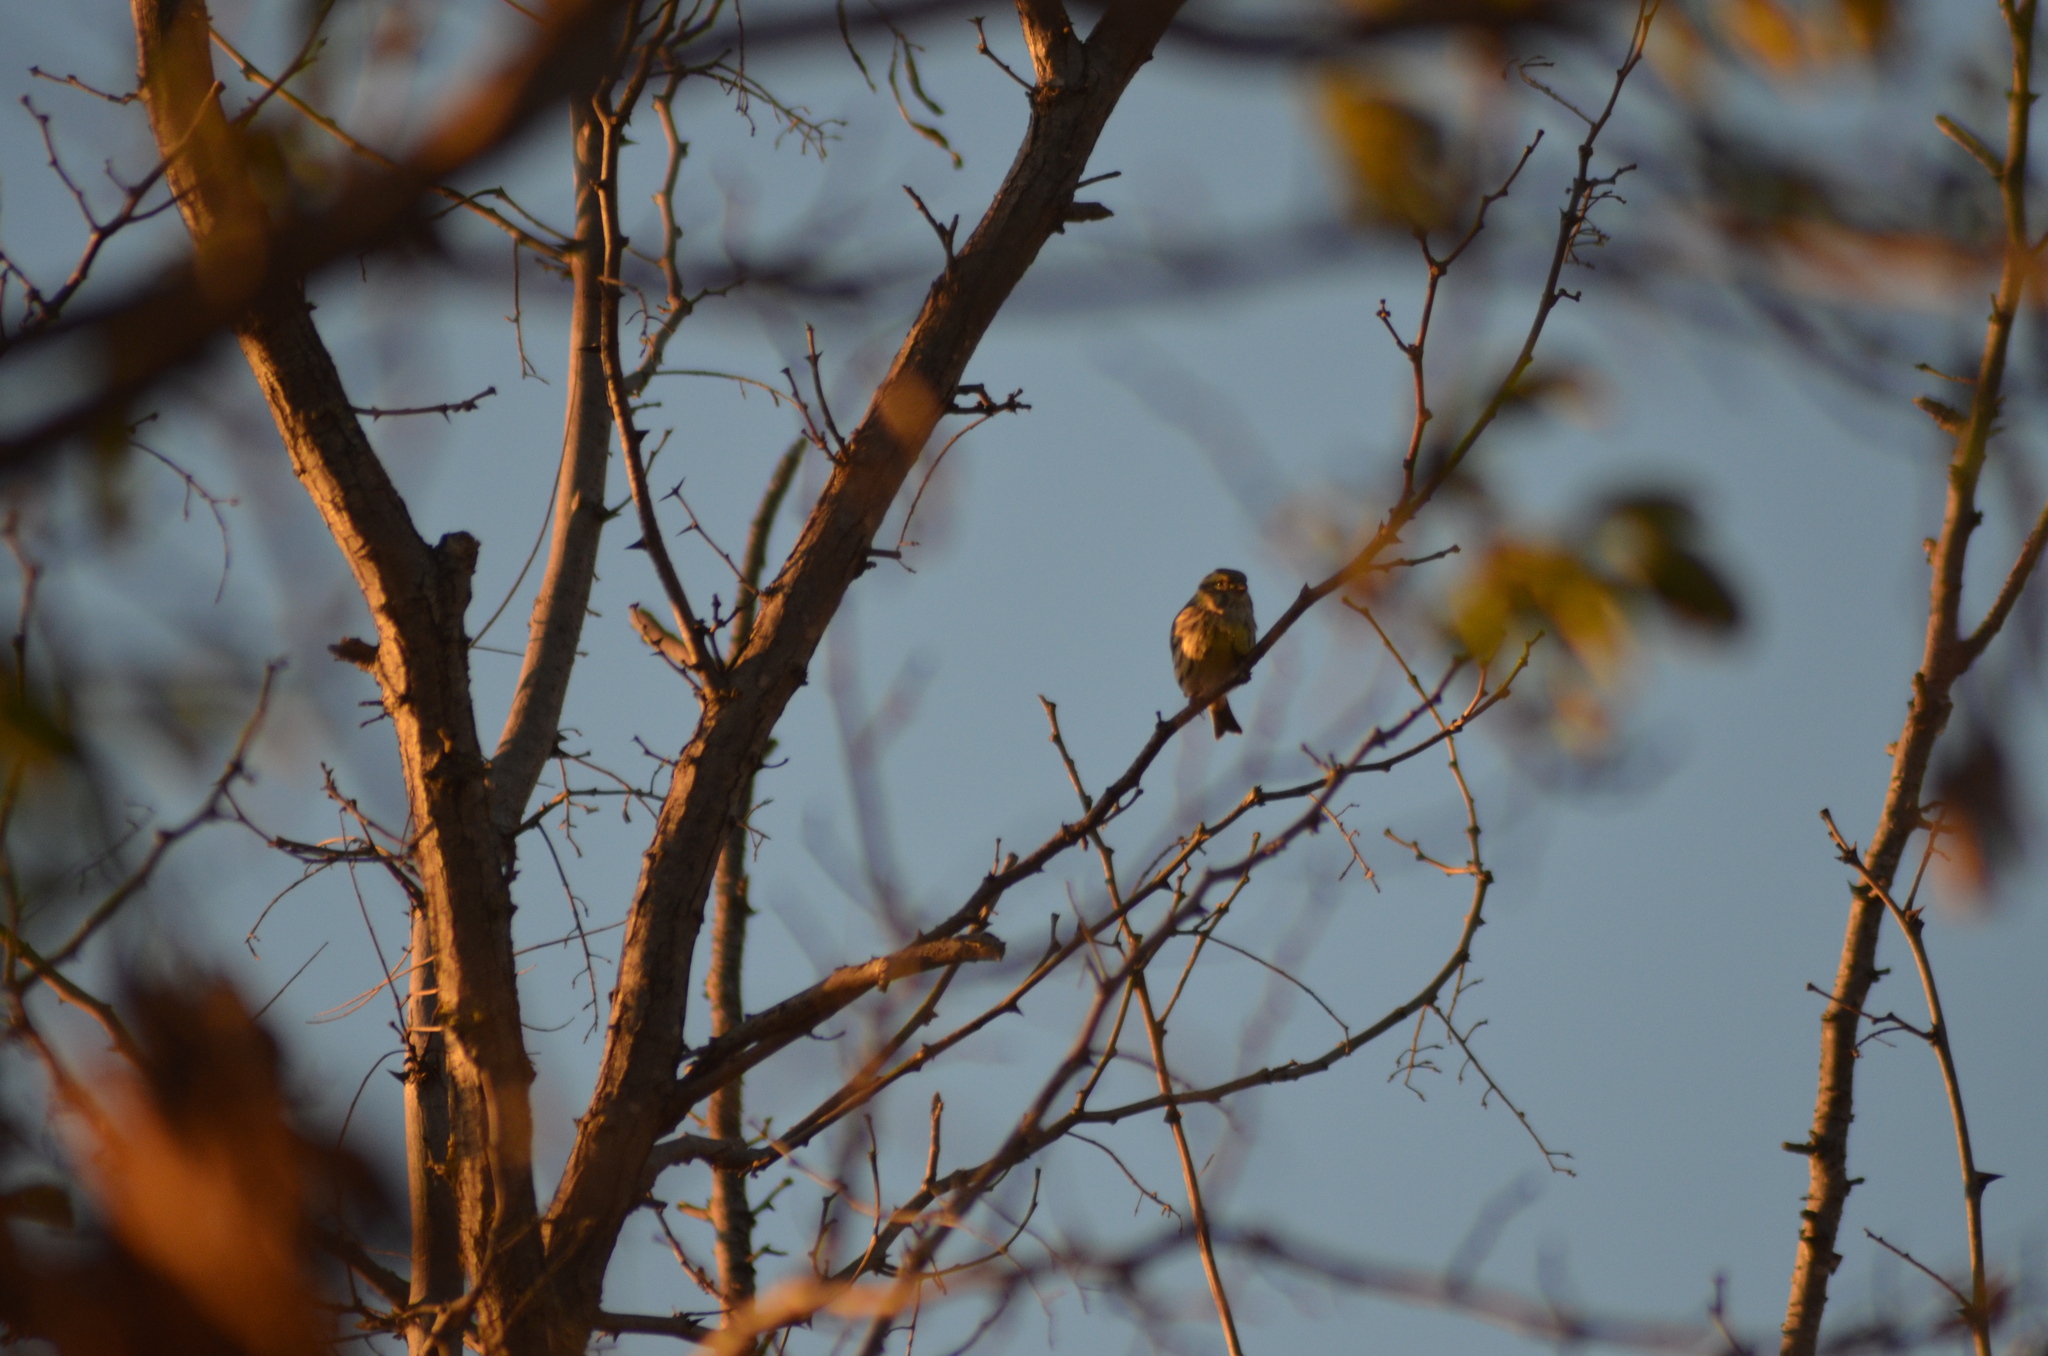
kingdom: Animalia
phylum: Chordata
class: Aves
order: Passeriformes
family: Fringillidae
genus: Serinus
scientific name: Serinus serinus
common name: European serin
